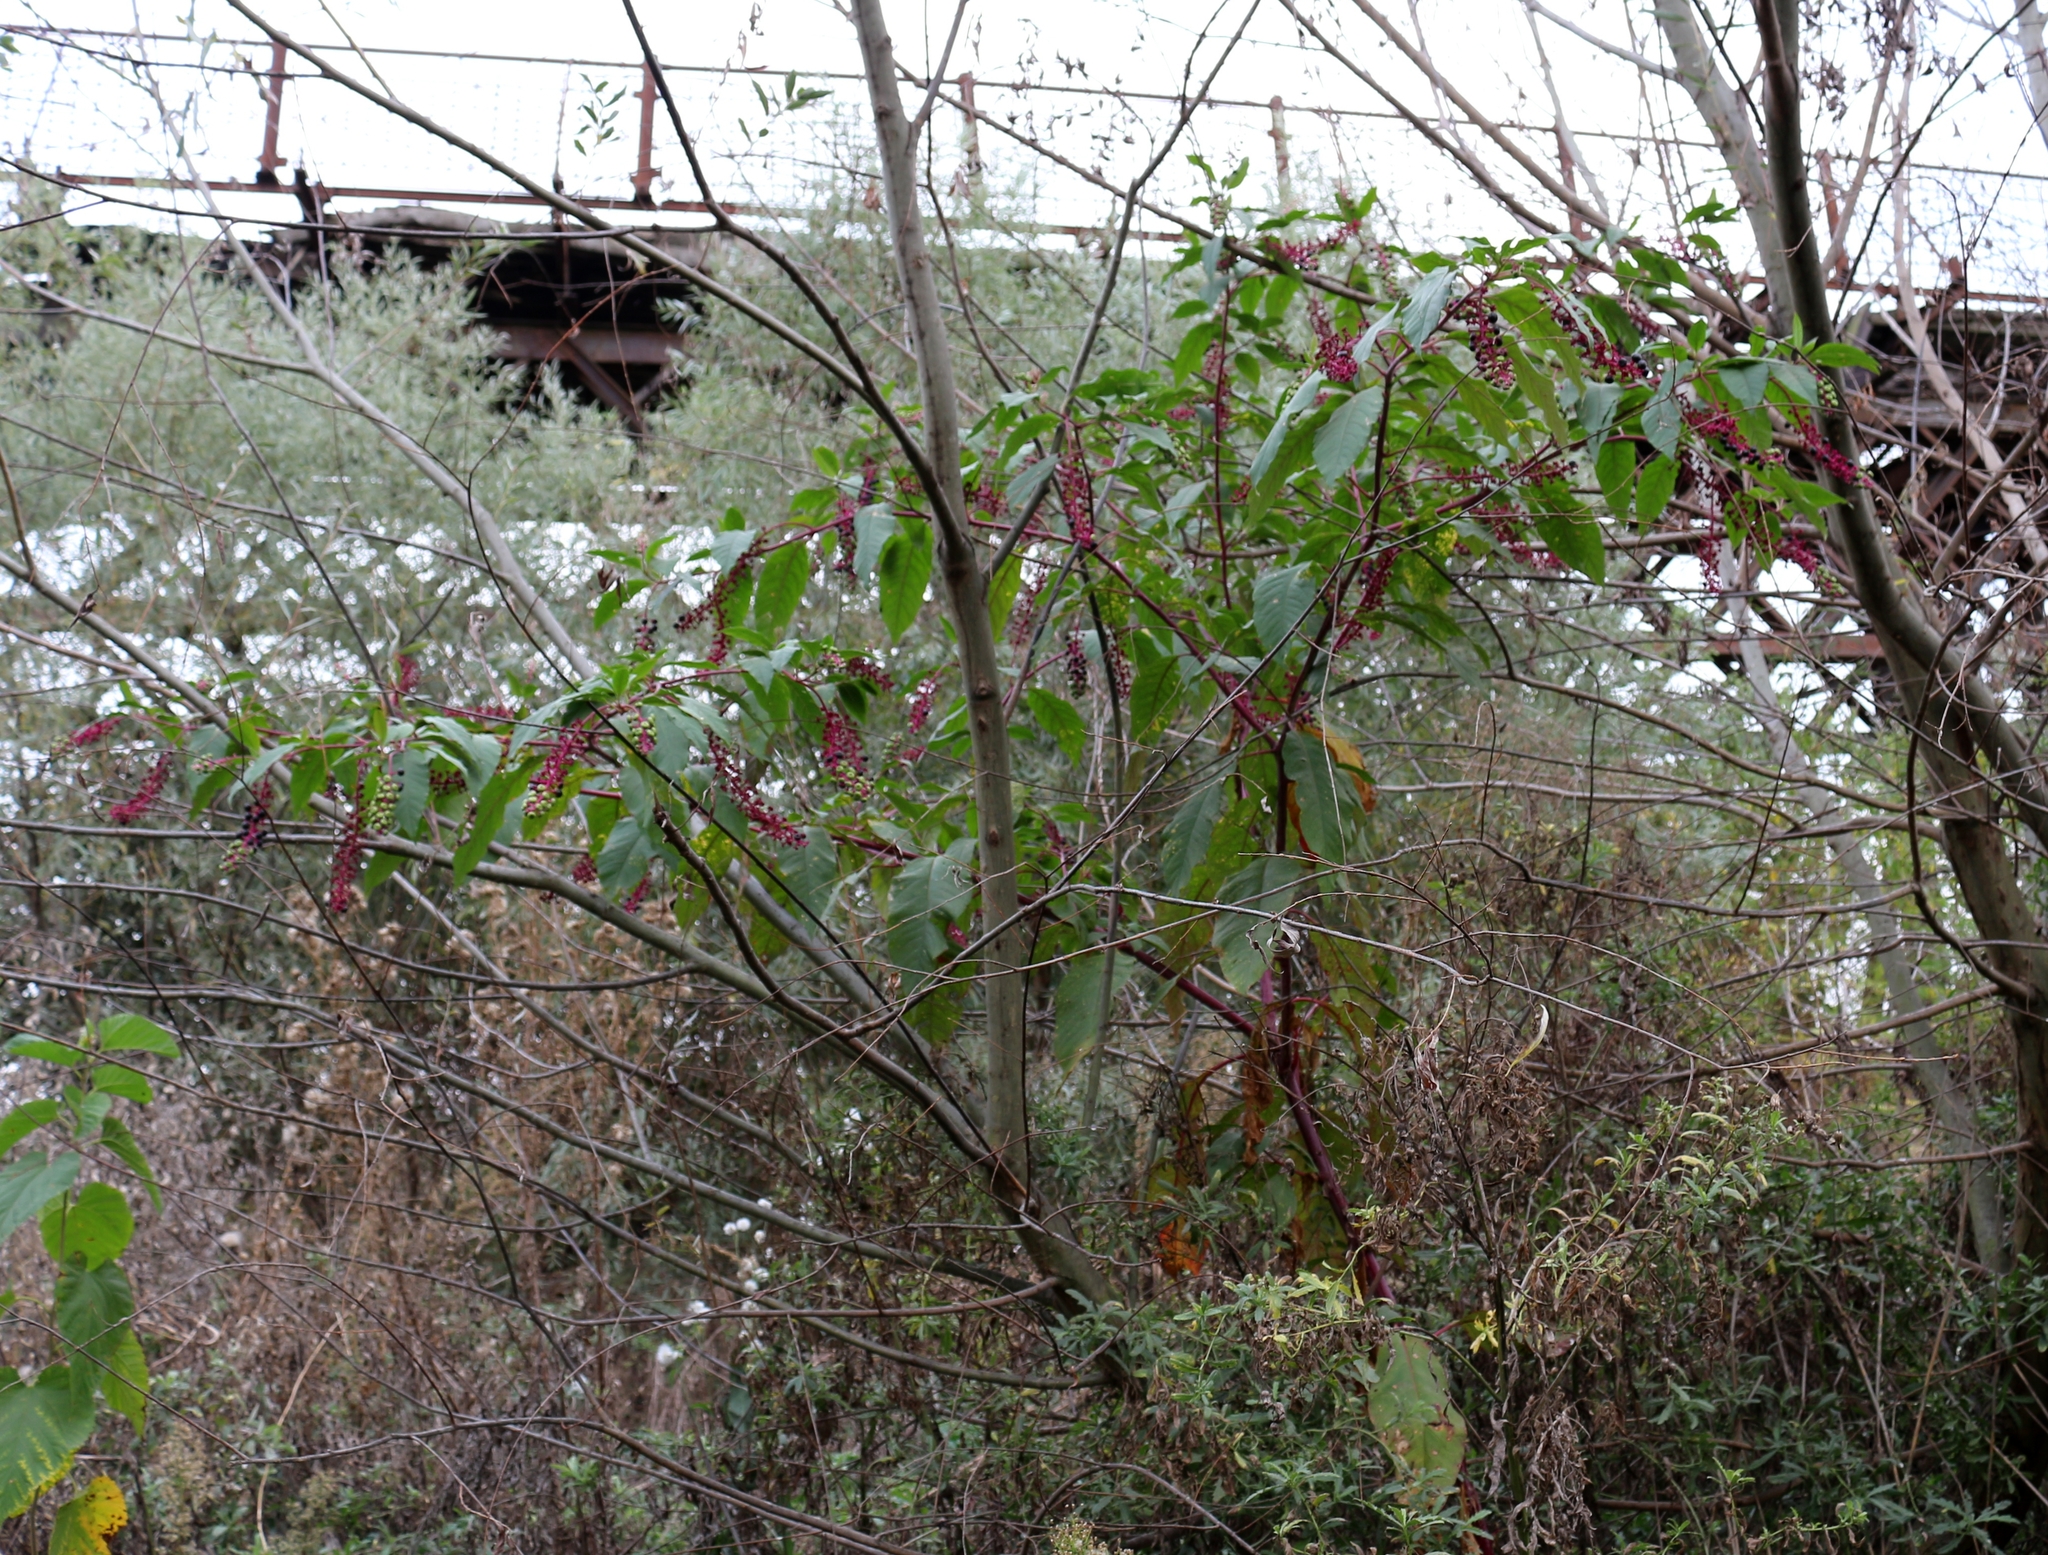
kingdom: Plantae
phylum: Tracheophyta
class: Magnoliopsida
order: Caryophyllales
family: Phytolaccaceae
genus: Phytolacca
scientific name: Phytolacca americana
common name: American pokeweed
